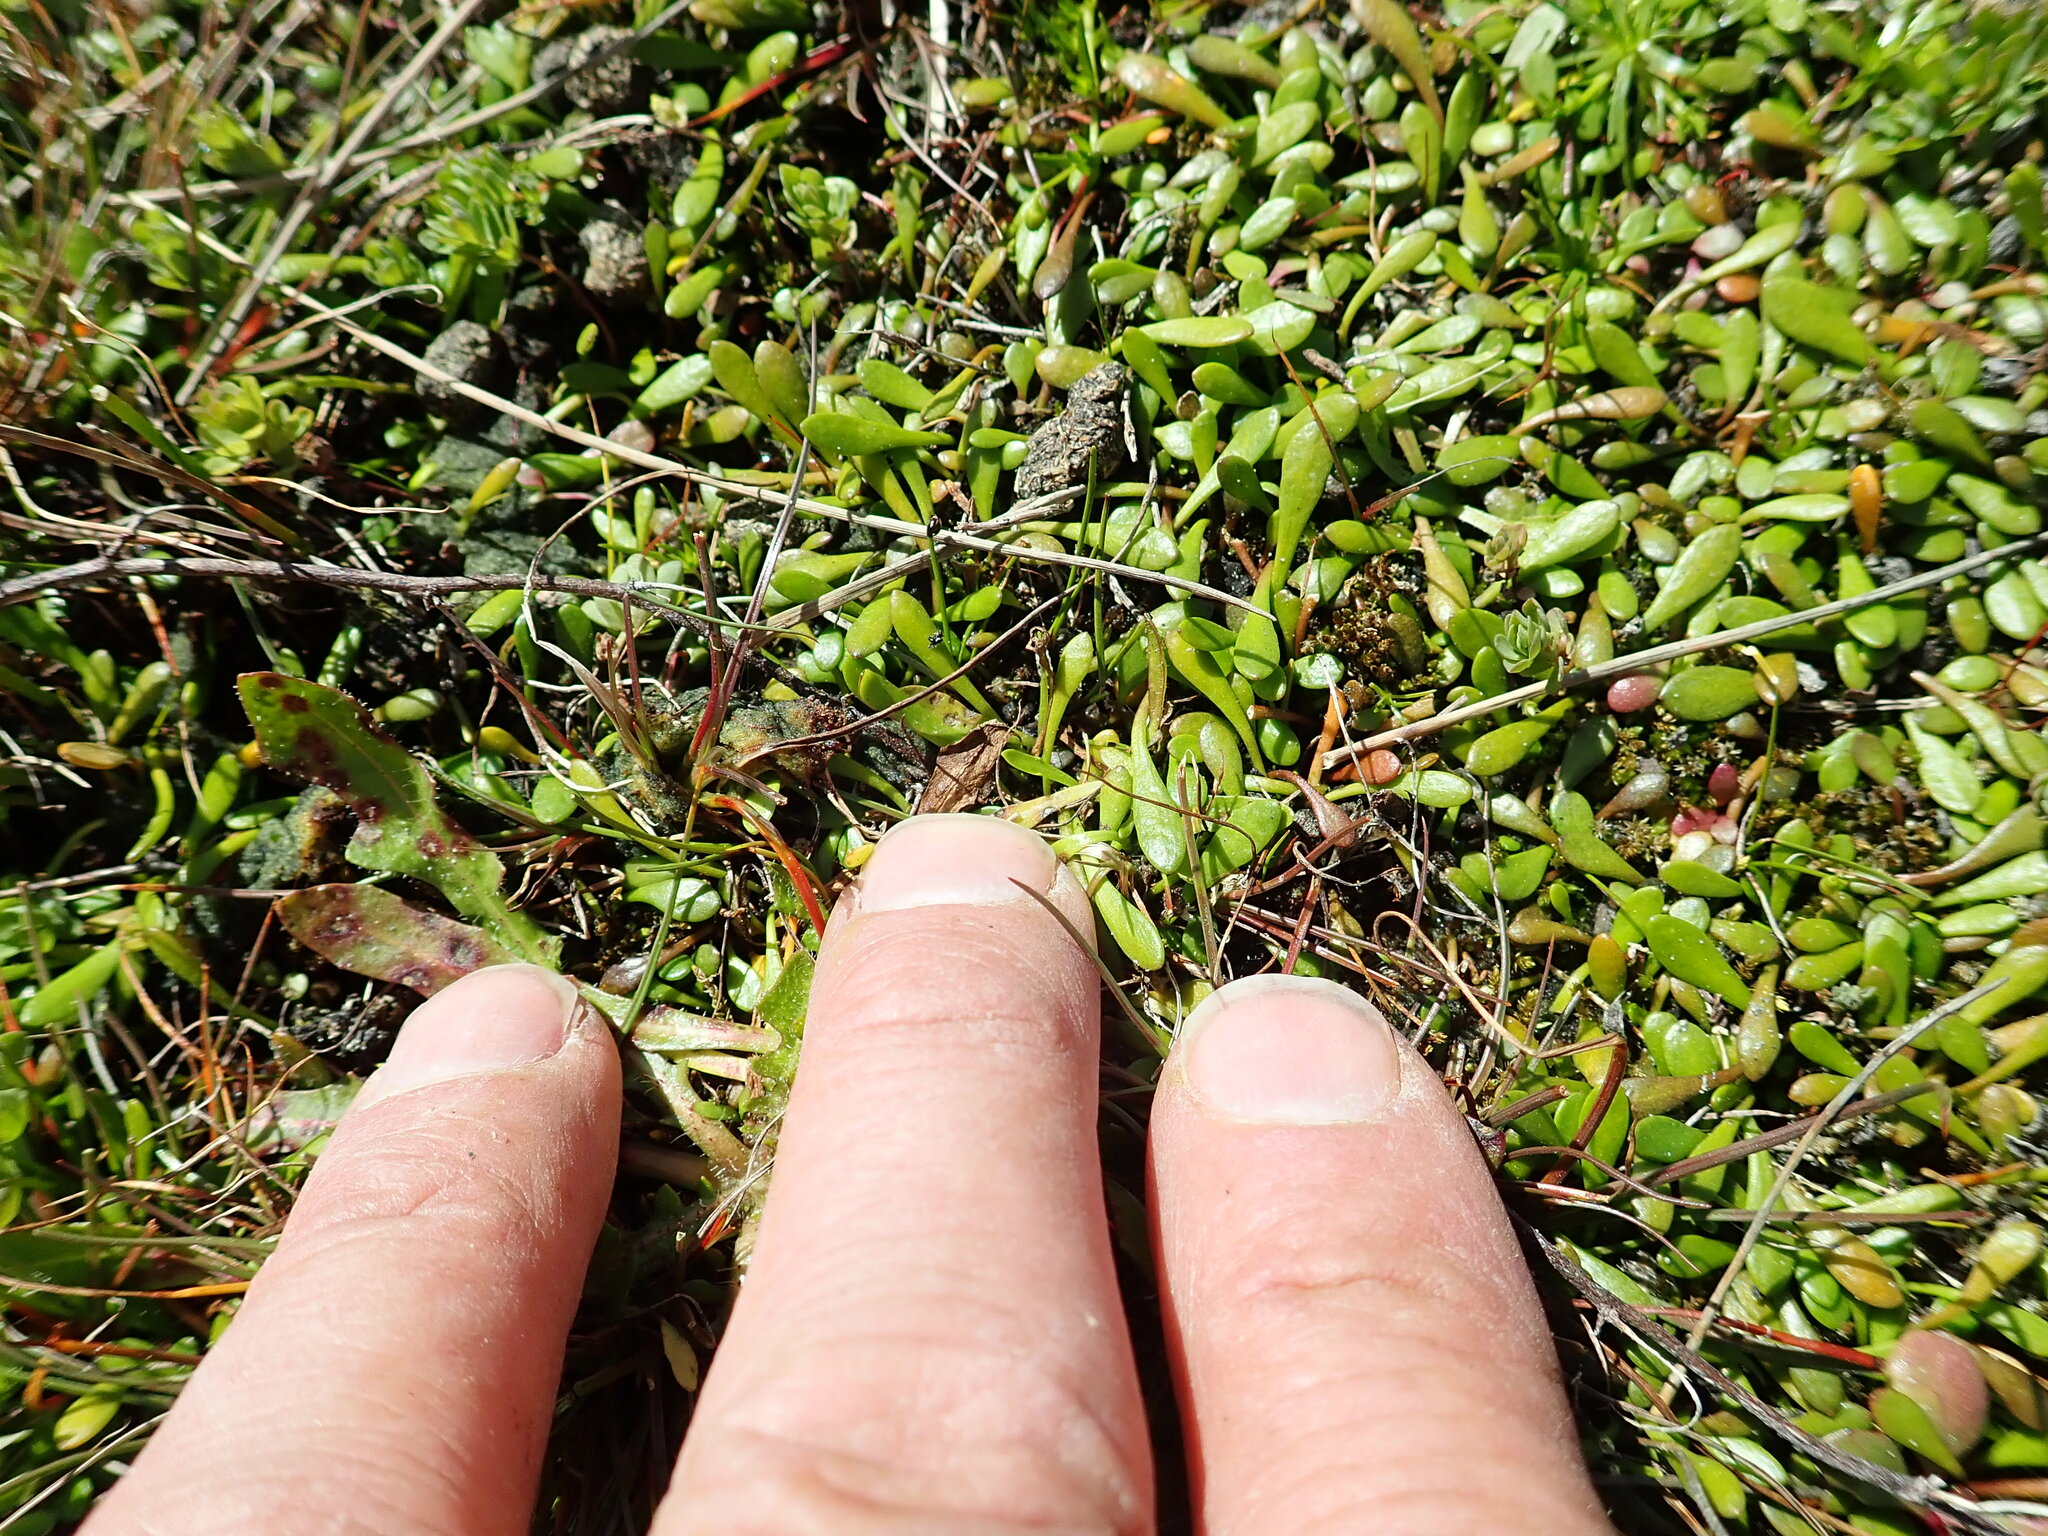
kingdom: Plantae
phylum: Tracheophyta
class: Magnoliopsida
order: Asterales
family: Goodeniaceae
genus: Goodenia
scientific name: Goodenia radicans
